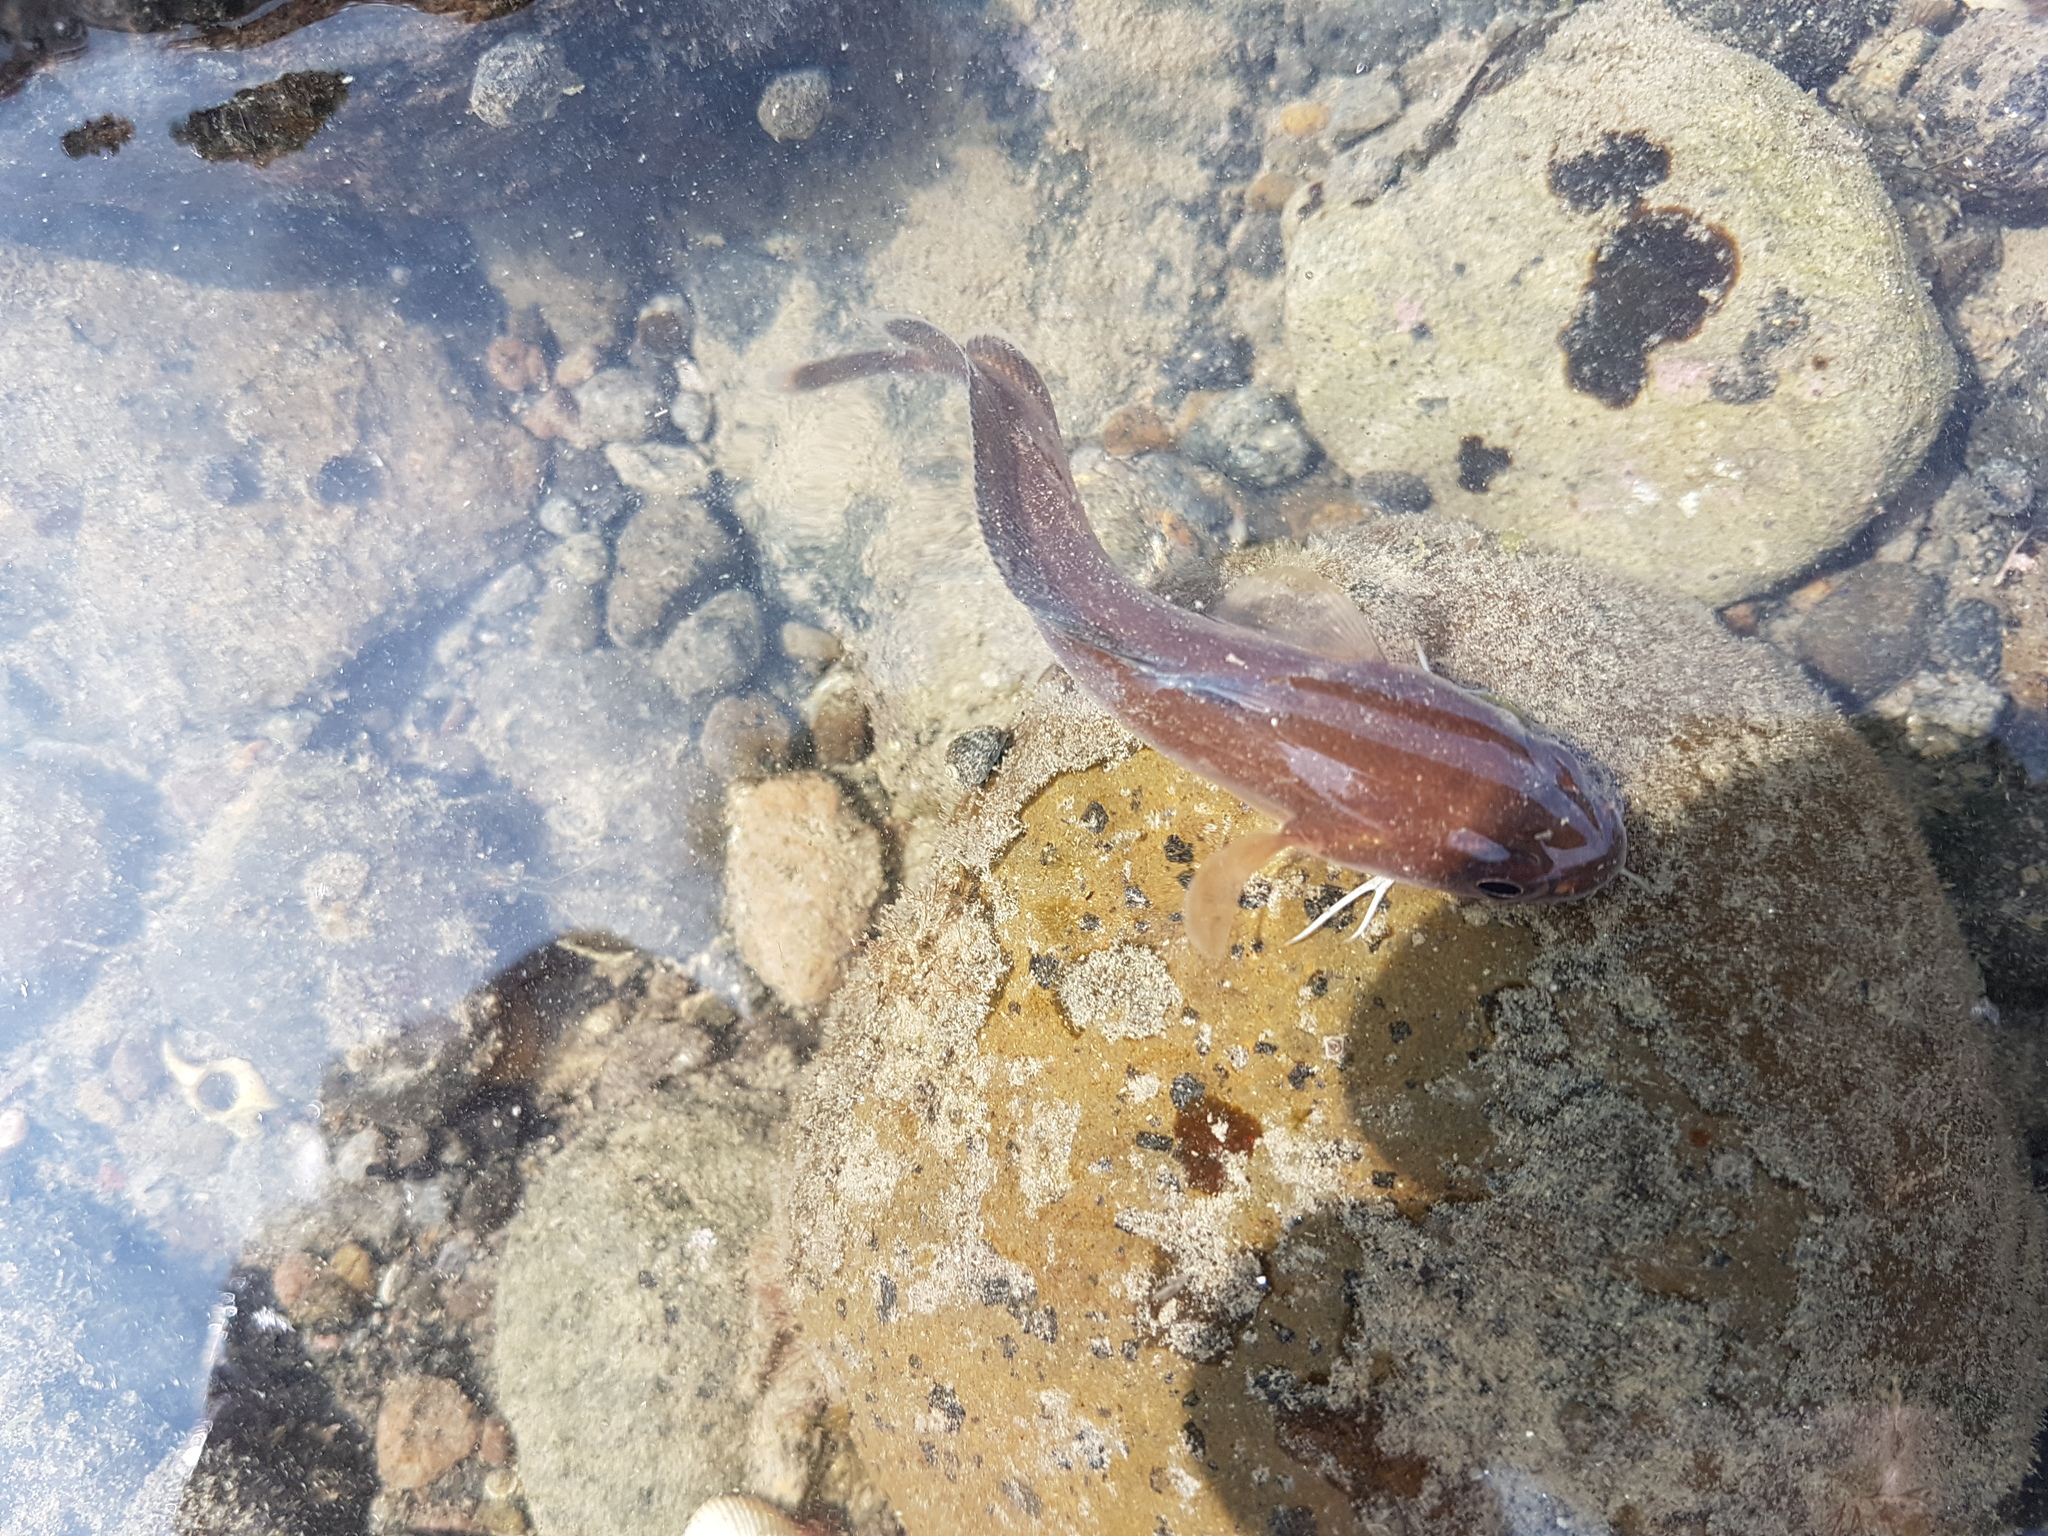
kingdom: Animalia
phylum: Chordata
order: Gadiformes
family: Moridae
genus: Pseudophycis
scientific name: Pseudophycis breviuscula
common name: Northern bastard codling
